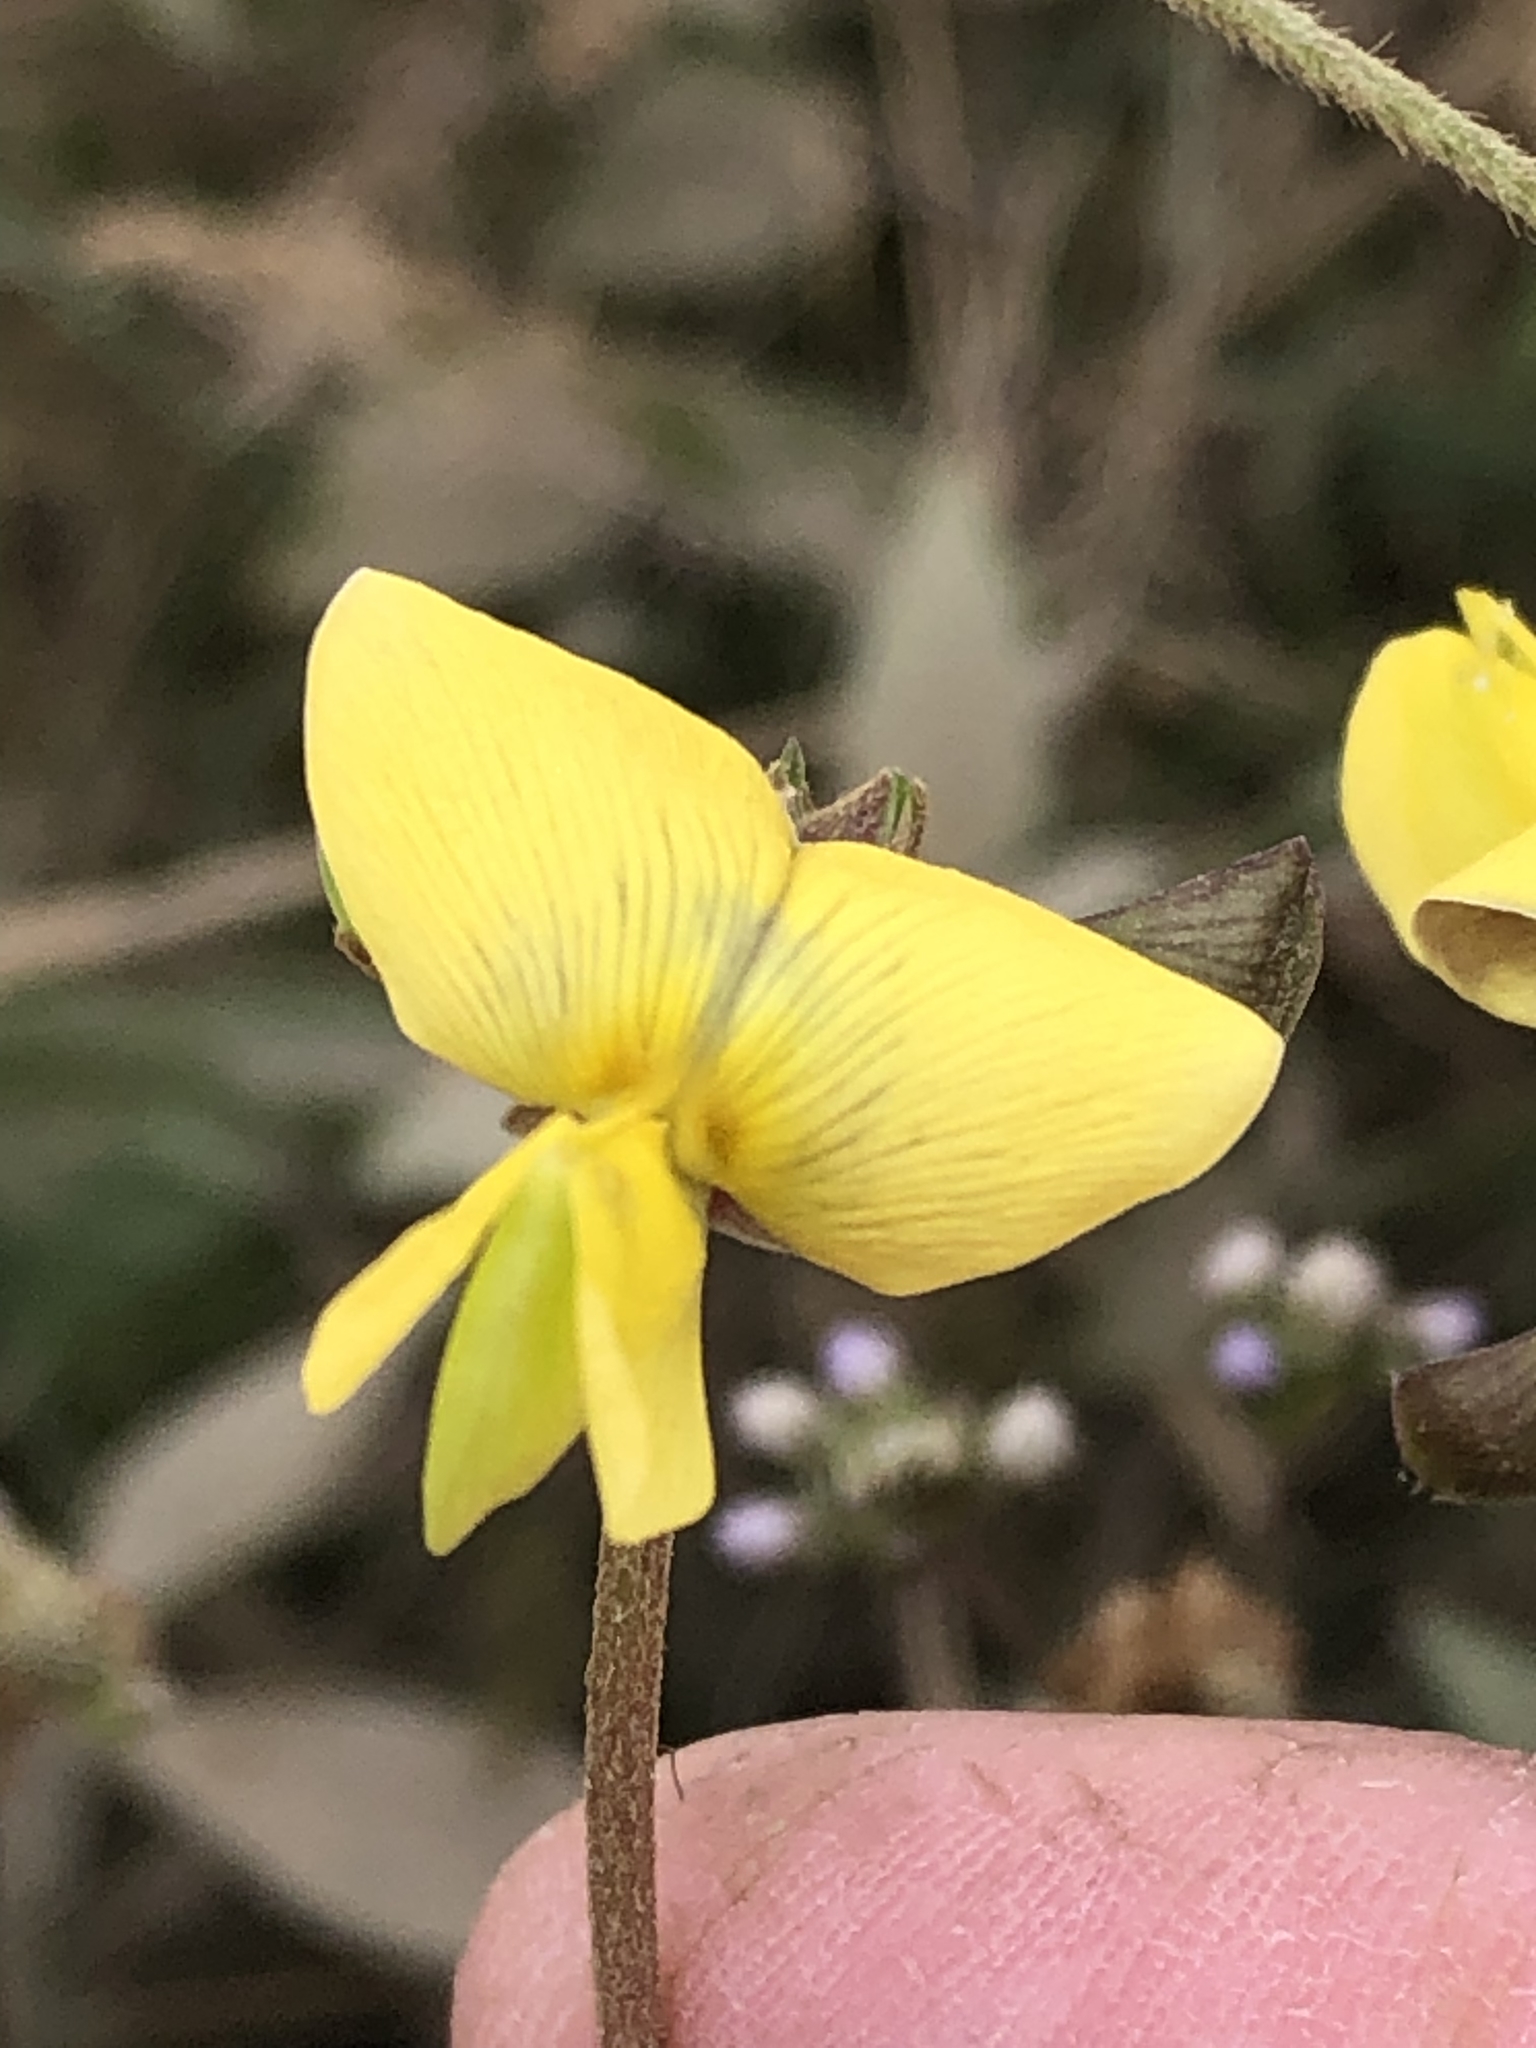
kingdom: Plantae
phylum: Tracheophyta
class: Magnoliopsida
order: Fabales
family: Fabaceae
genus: Vigna
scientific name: Vigna luteola
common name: Hairypod cowpea
